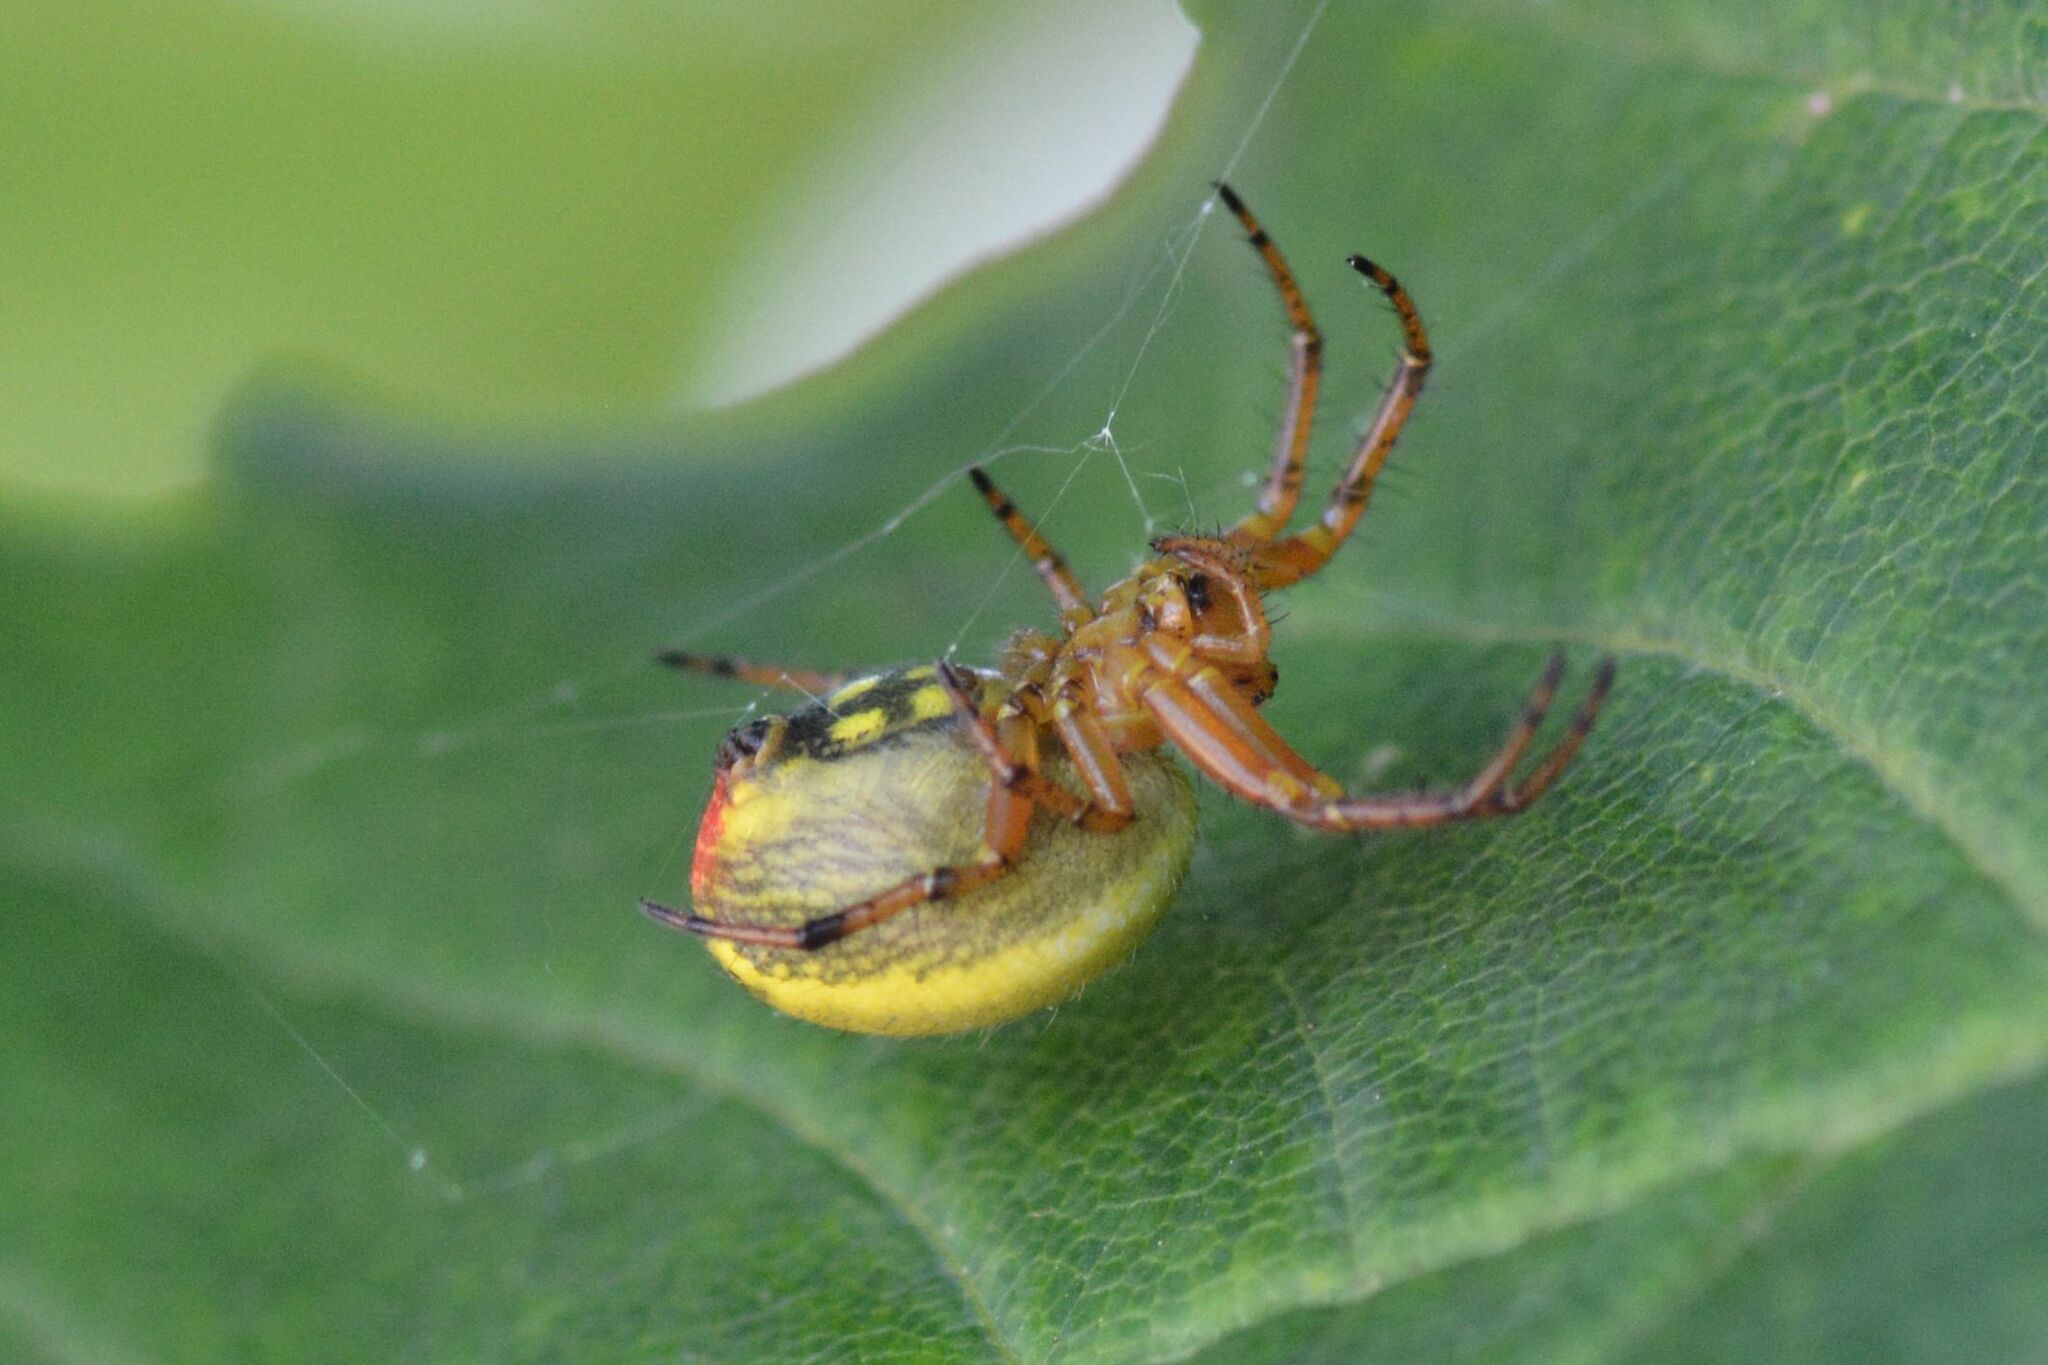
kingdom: Animalia
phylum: Arthropoda
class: Arachnida
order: Araneae
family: Araneidae
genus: Araniella
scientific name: Araniella alpica
